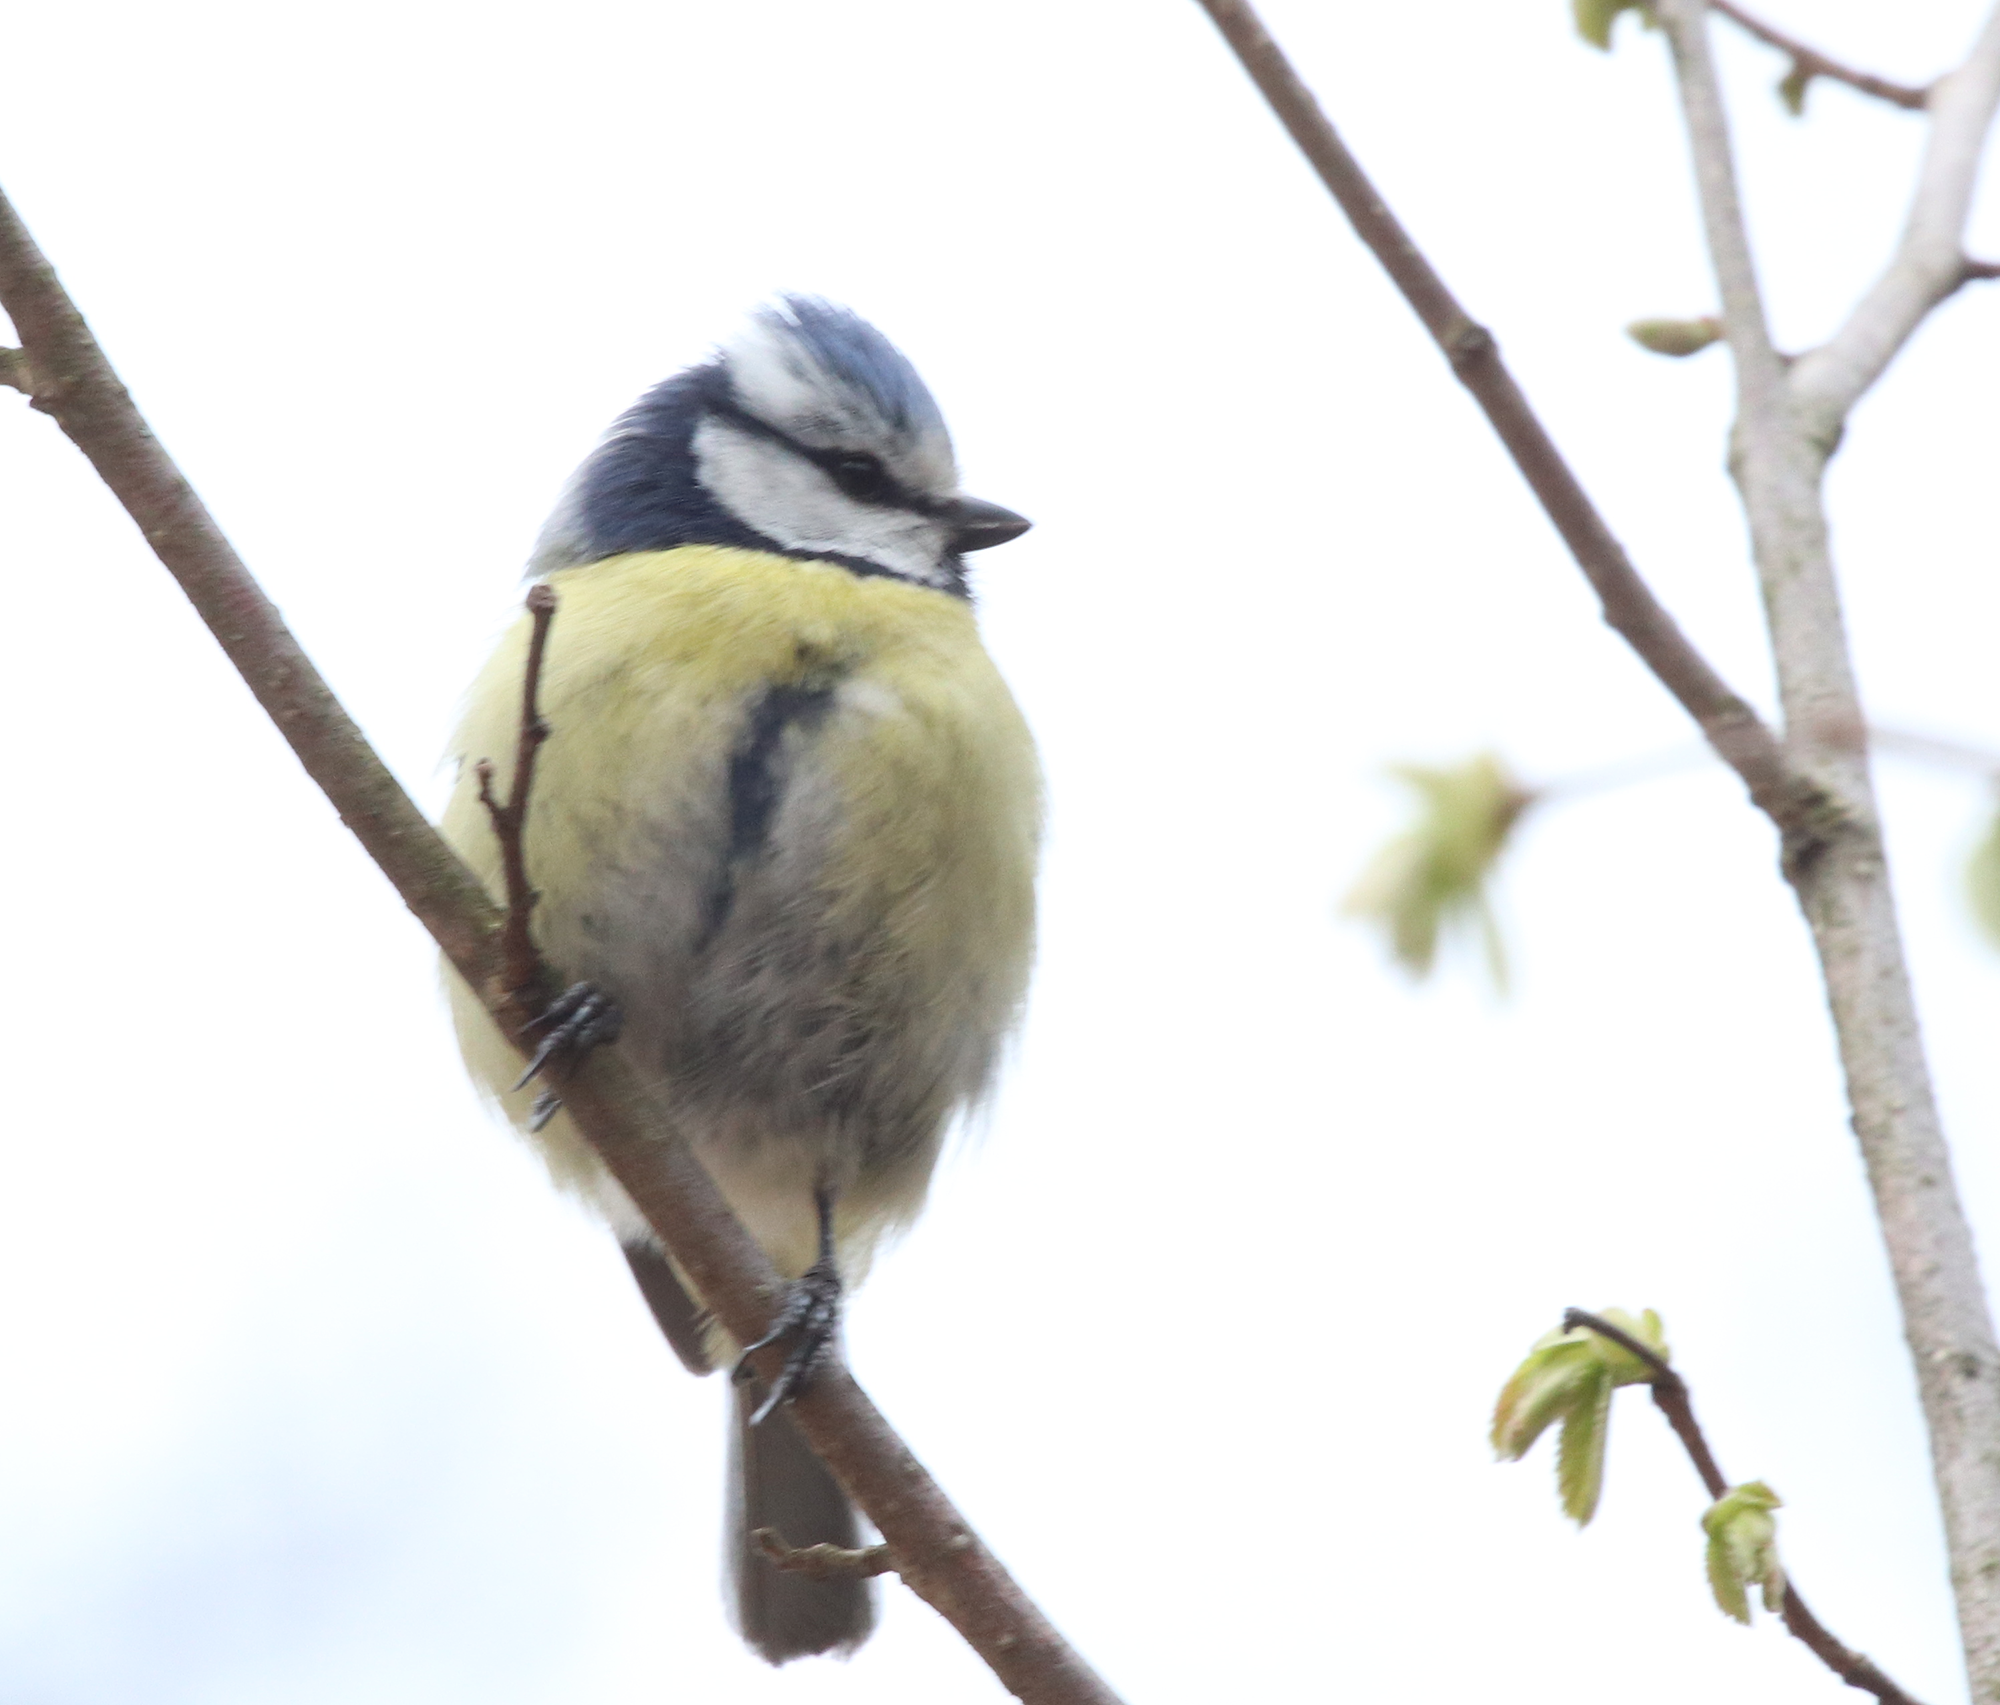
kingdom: Animalia
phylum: Chordata
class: Aves
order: Passeriformes
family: Paridae
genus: Cyanistes
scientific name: Cyanistes caeruleus
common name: Eurasian blue tit
